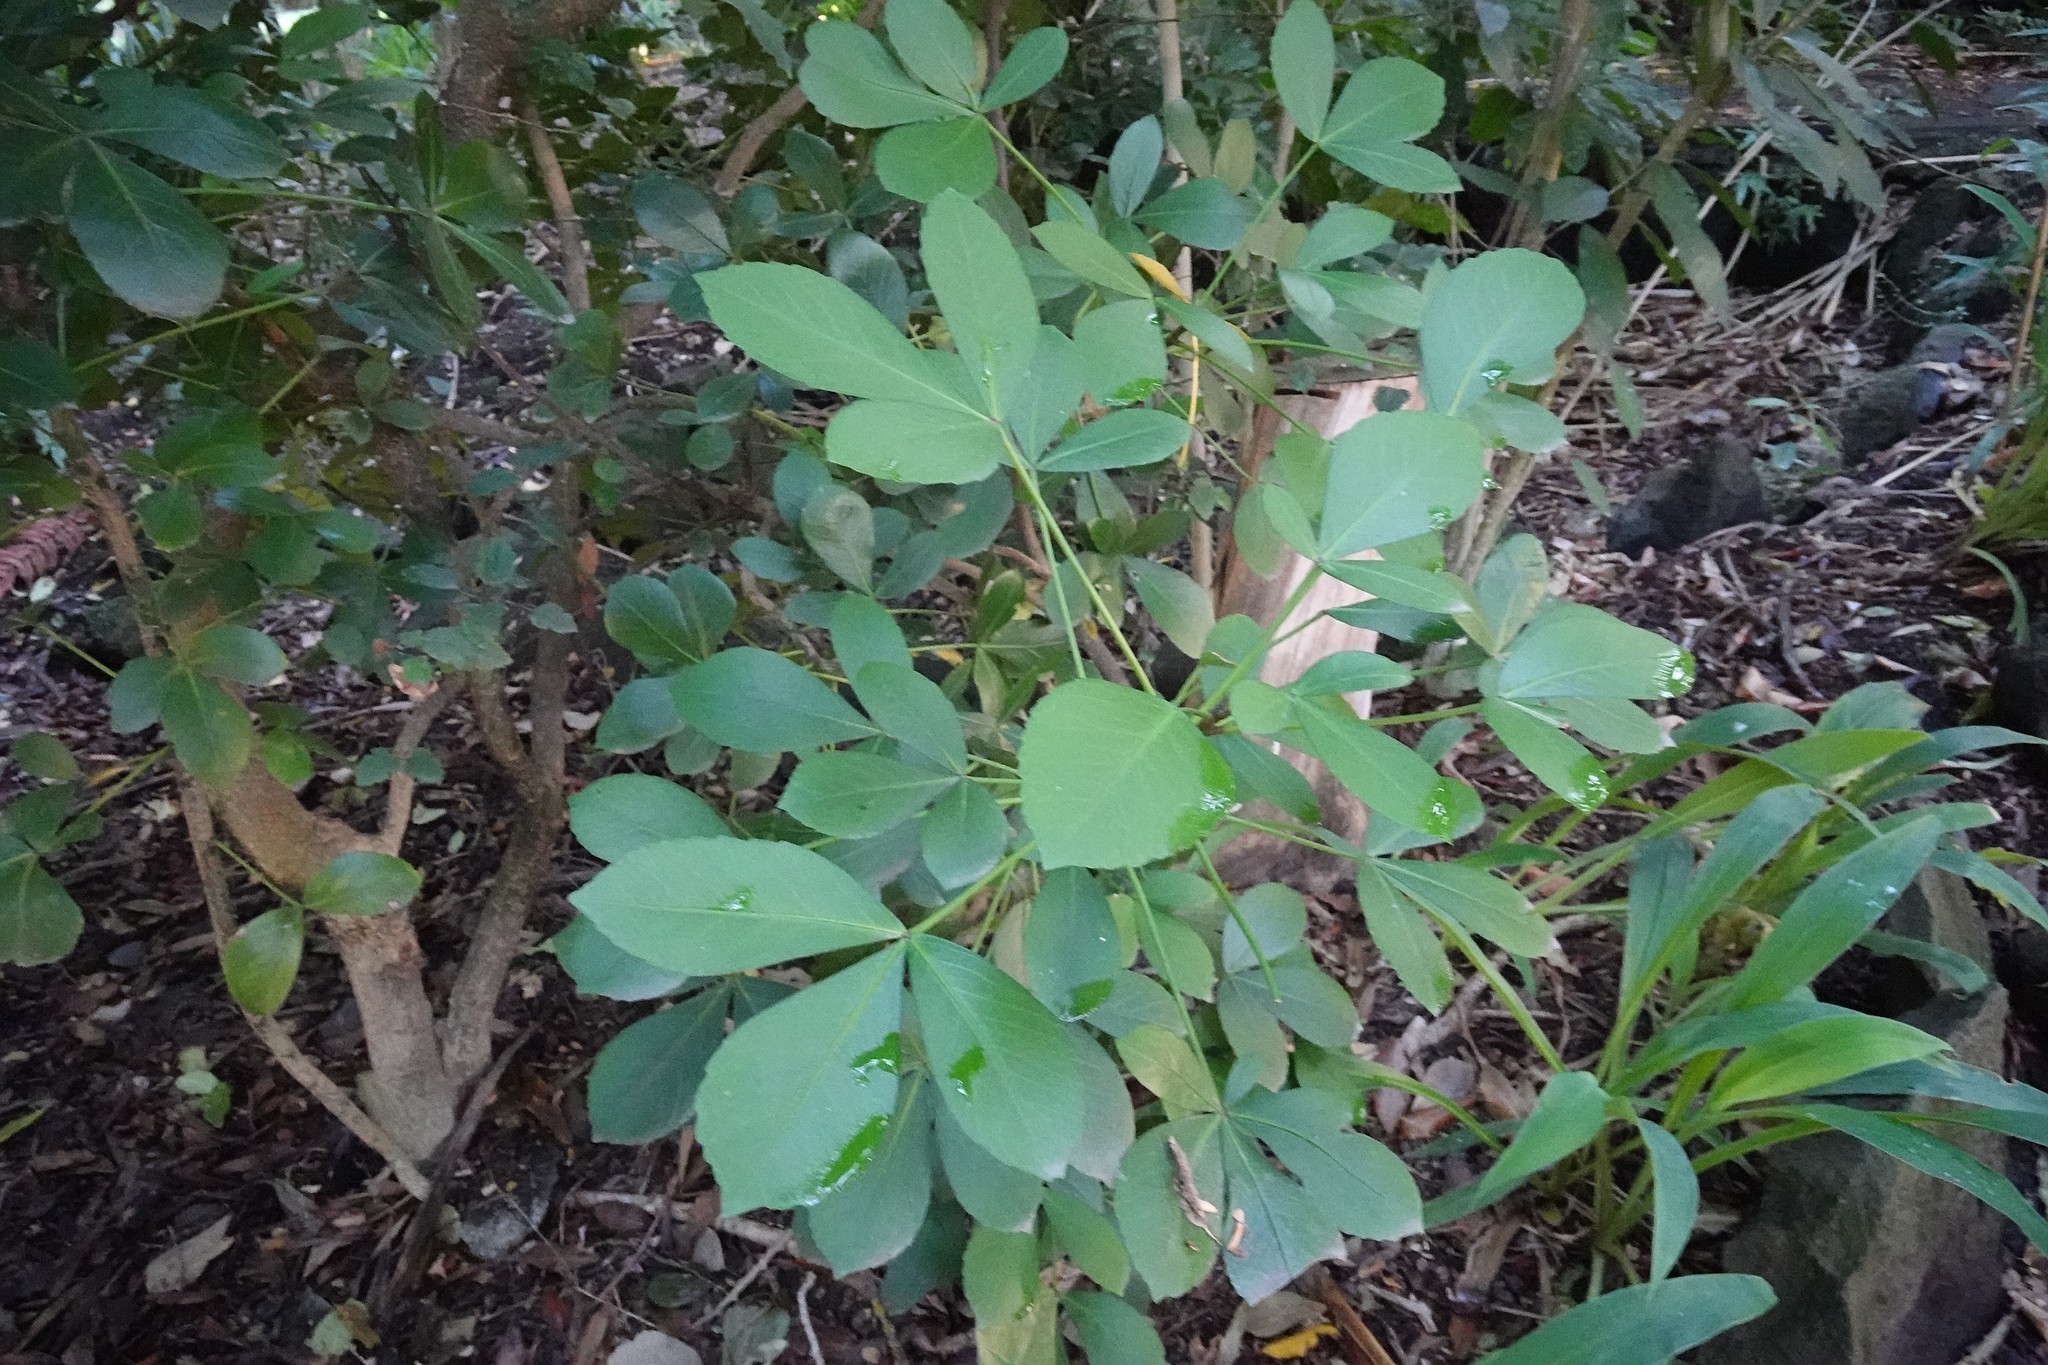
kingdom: Plantae
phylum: Tracheophyta
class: Magnoliopsida
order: Apiales
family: Araliaceae
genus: Pseudopanax
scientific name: Pseudopanax lessonii
